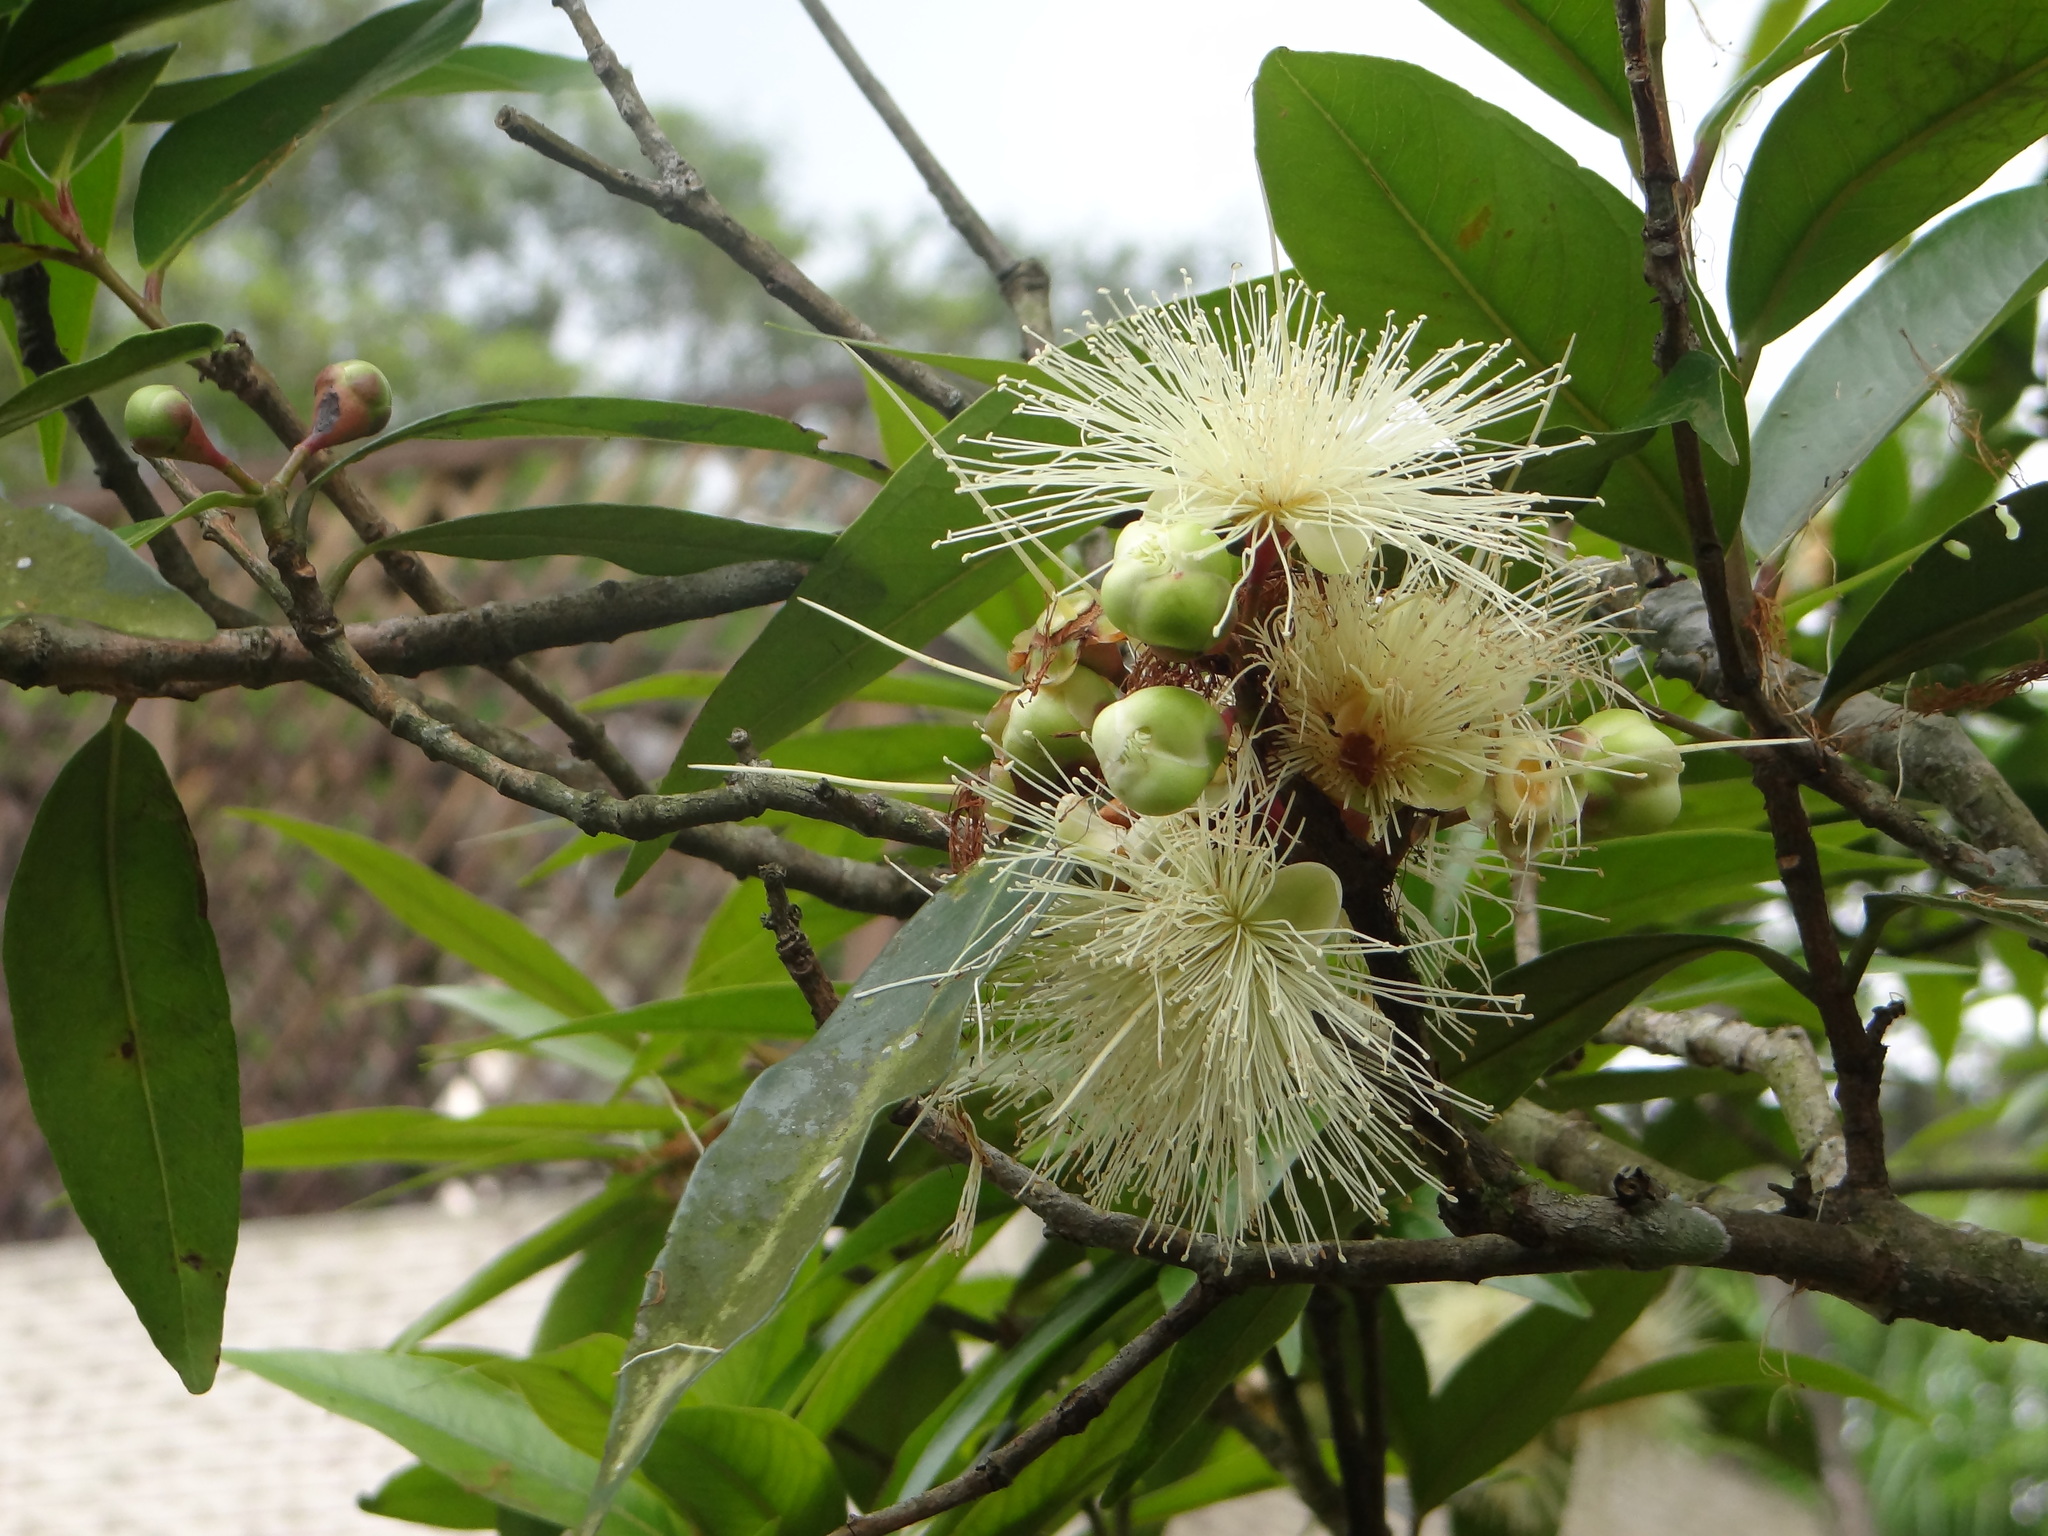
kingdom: Plantae
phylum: Tracheophyta
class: Magnoliopsida
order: Myrtales
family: Myrtaceae
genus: Syzygium
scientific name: Syzygium jambos
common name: Malabar plum
